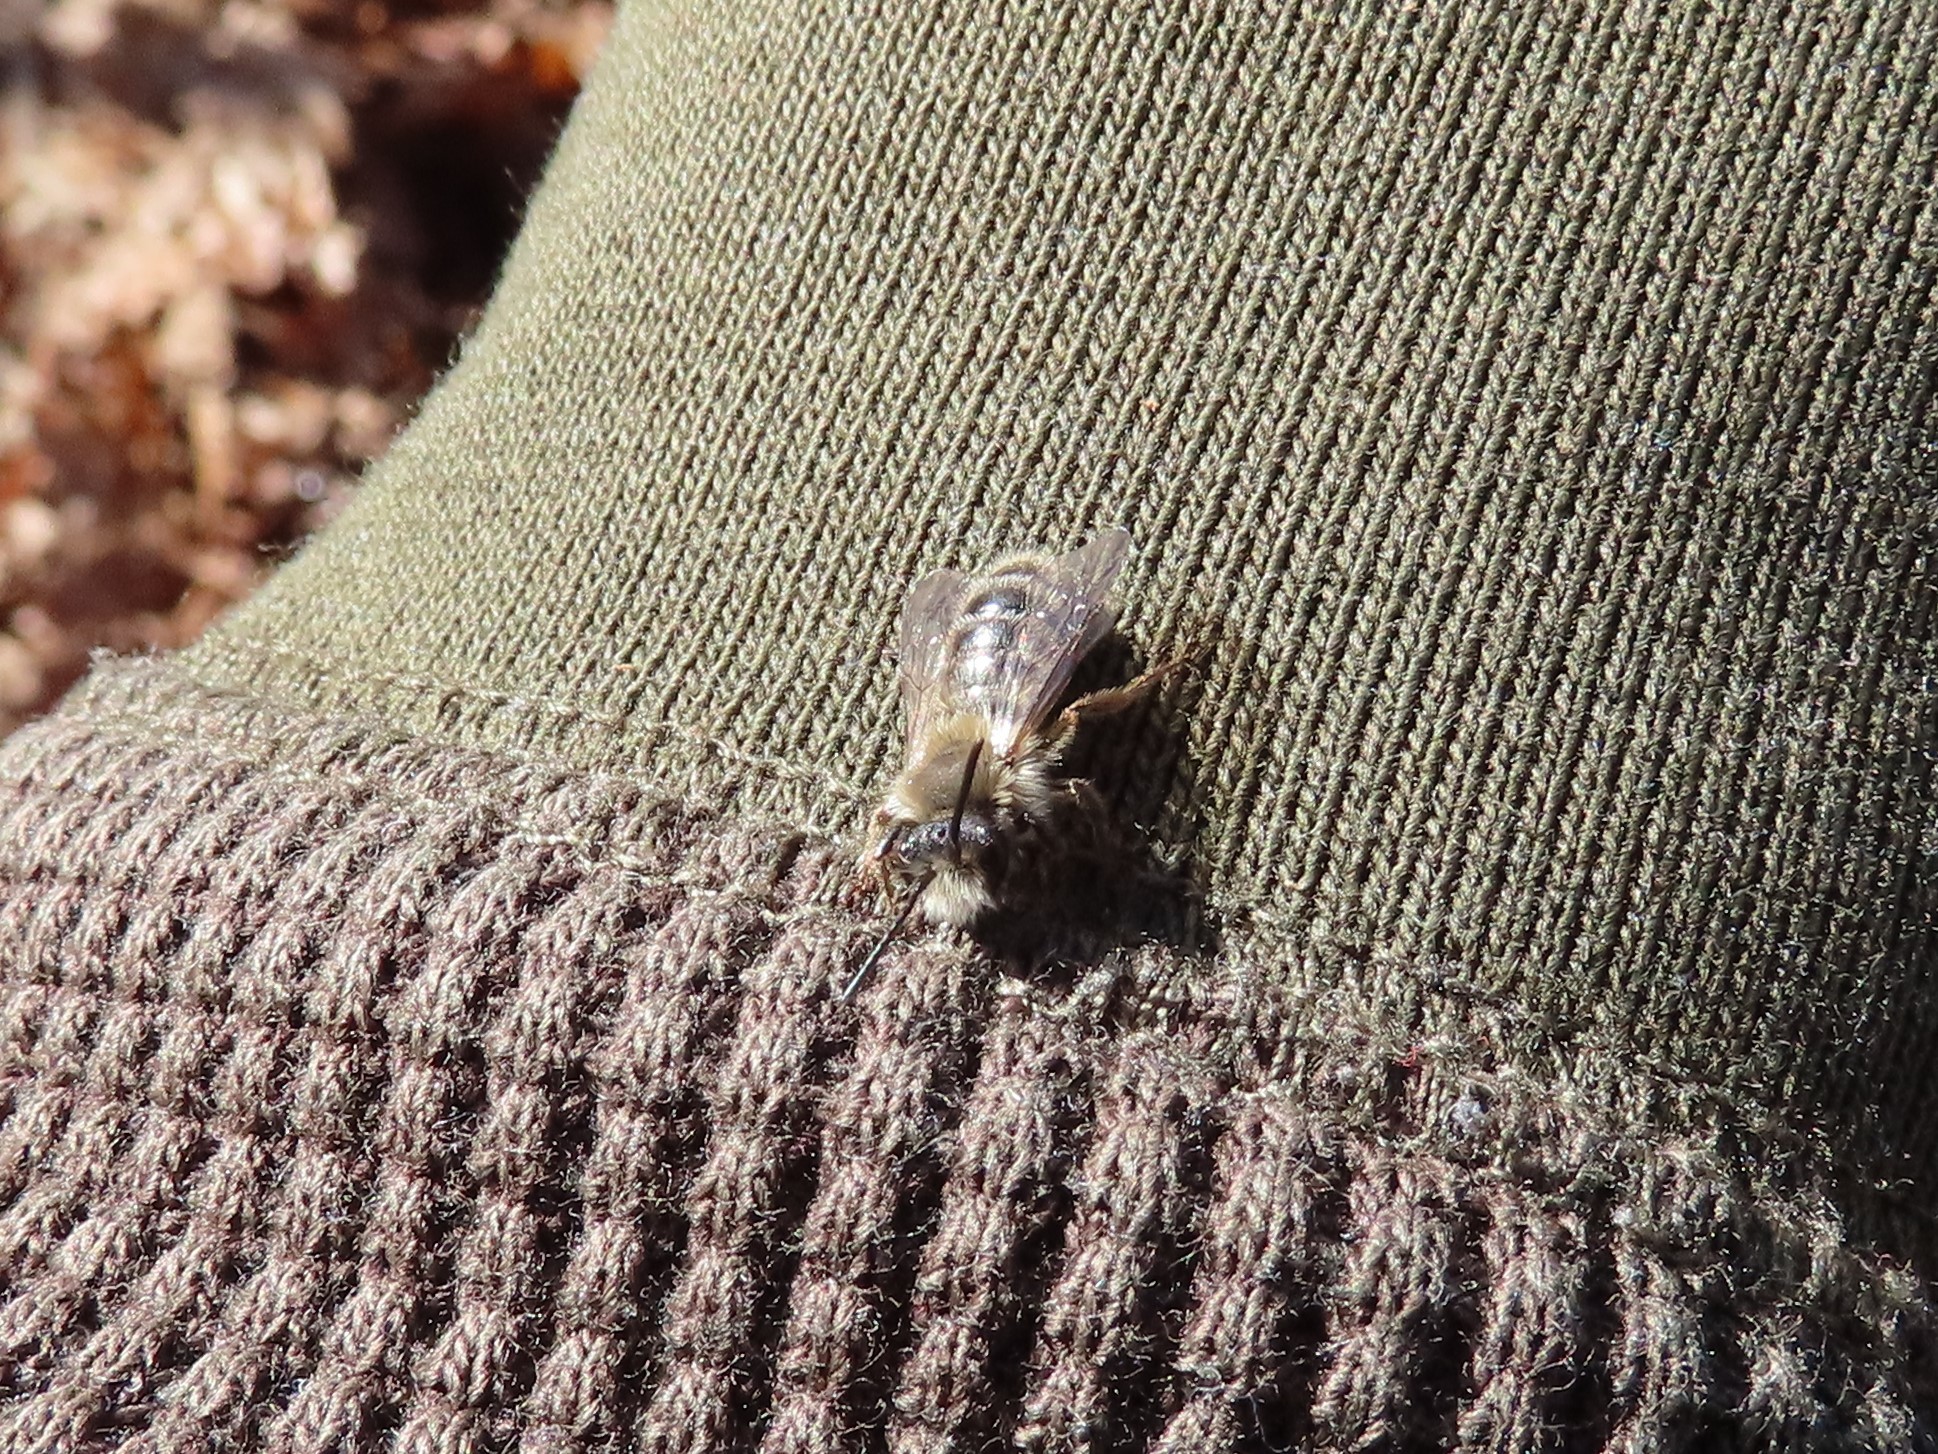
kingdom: Animalia
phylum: Arthropoda
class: Insecta
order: Hymenoptera
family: Andrenidae
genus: Andrena
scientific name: Andrena clarkella
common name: Clarke's mining bee
